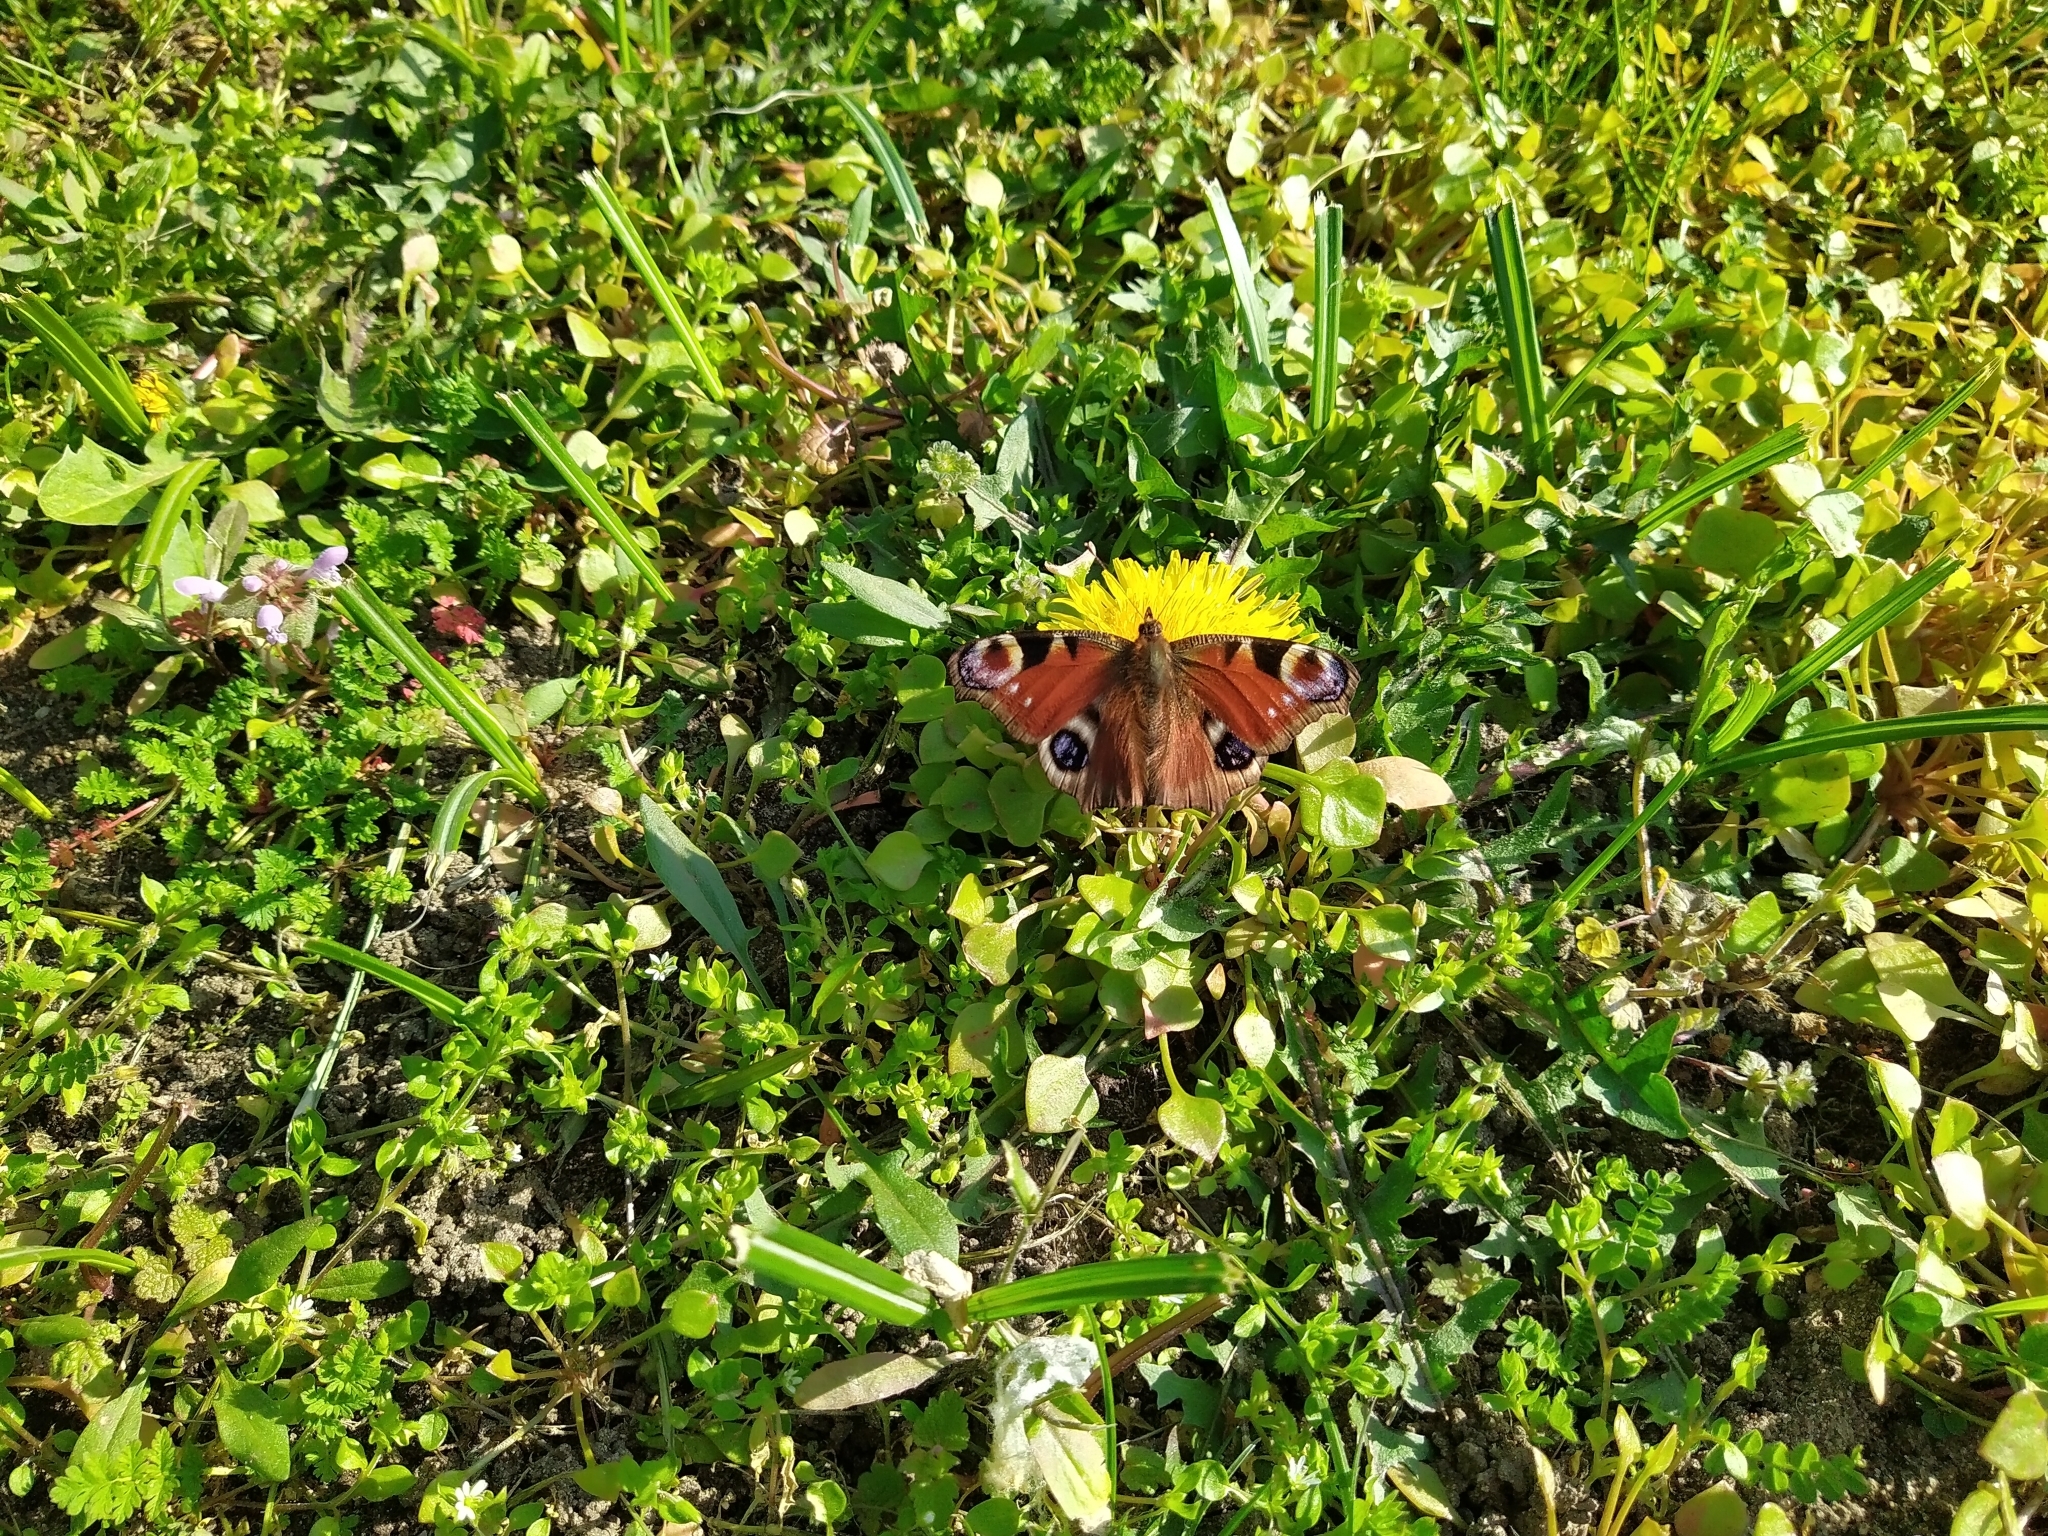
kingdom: Animalia
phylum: Arthropoda
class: Insecta
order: Lepidoptera
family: Nymphalidae
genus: Aglais
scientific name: Aglais io
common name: Peacock
